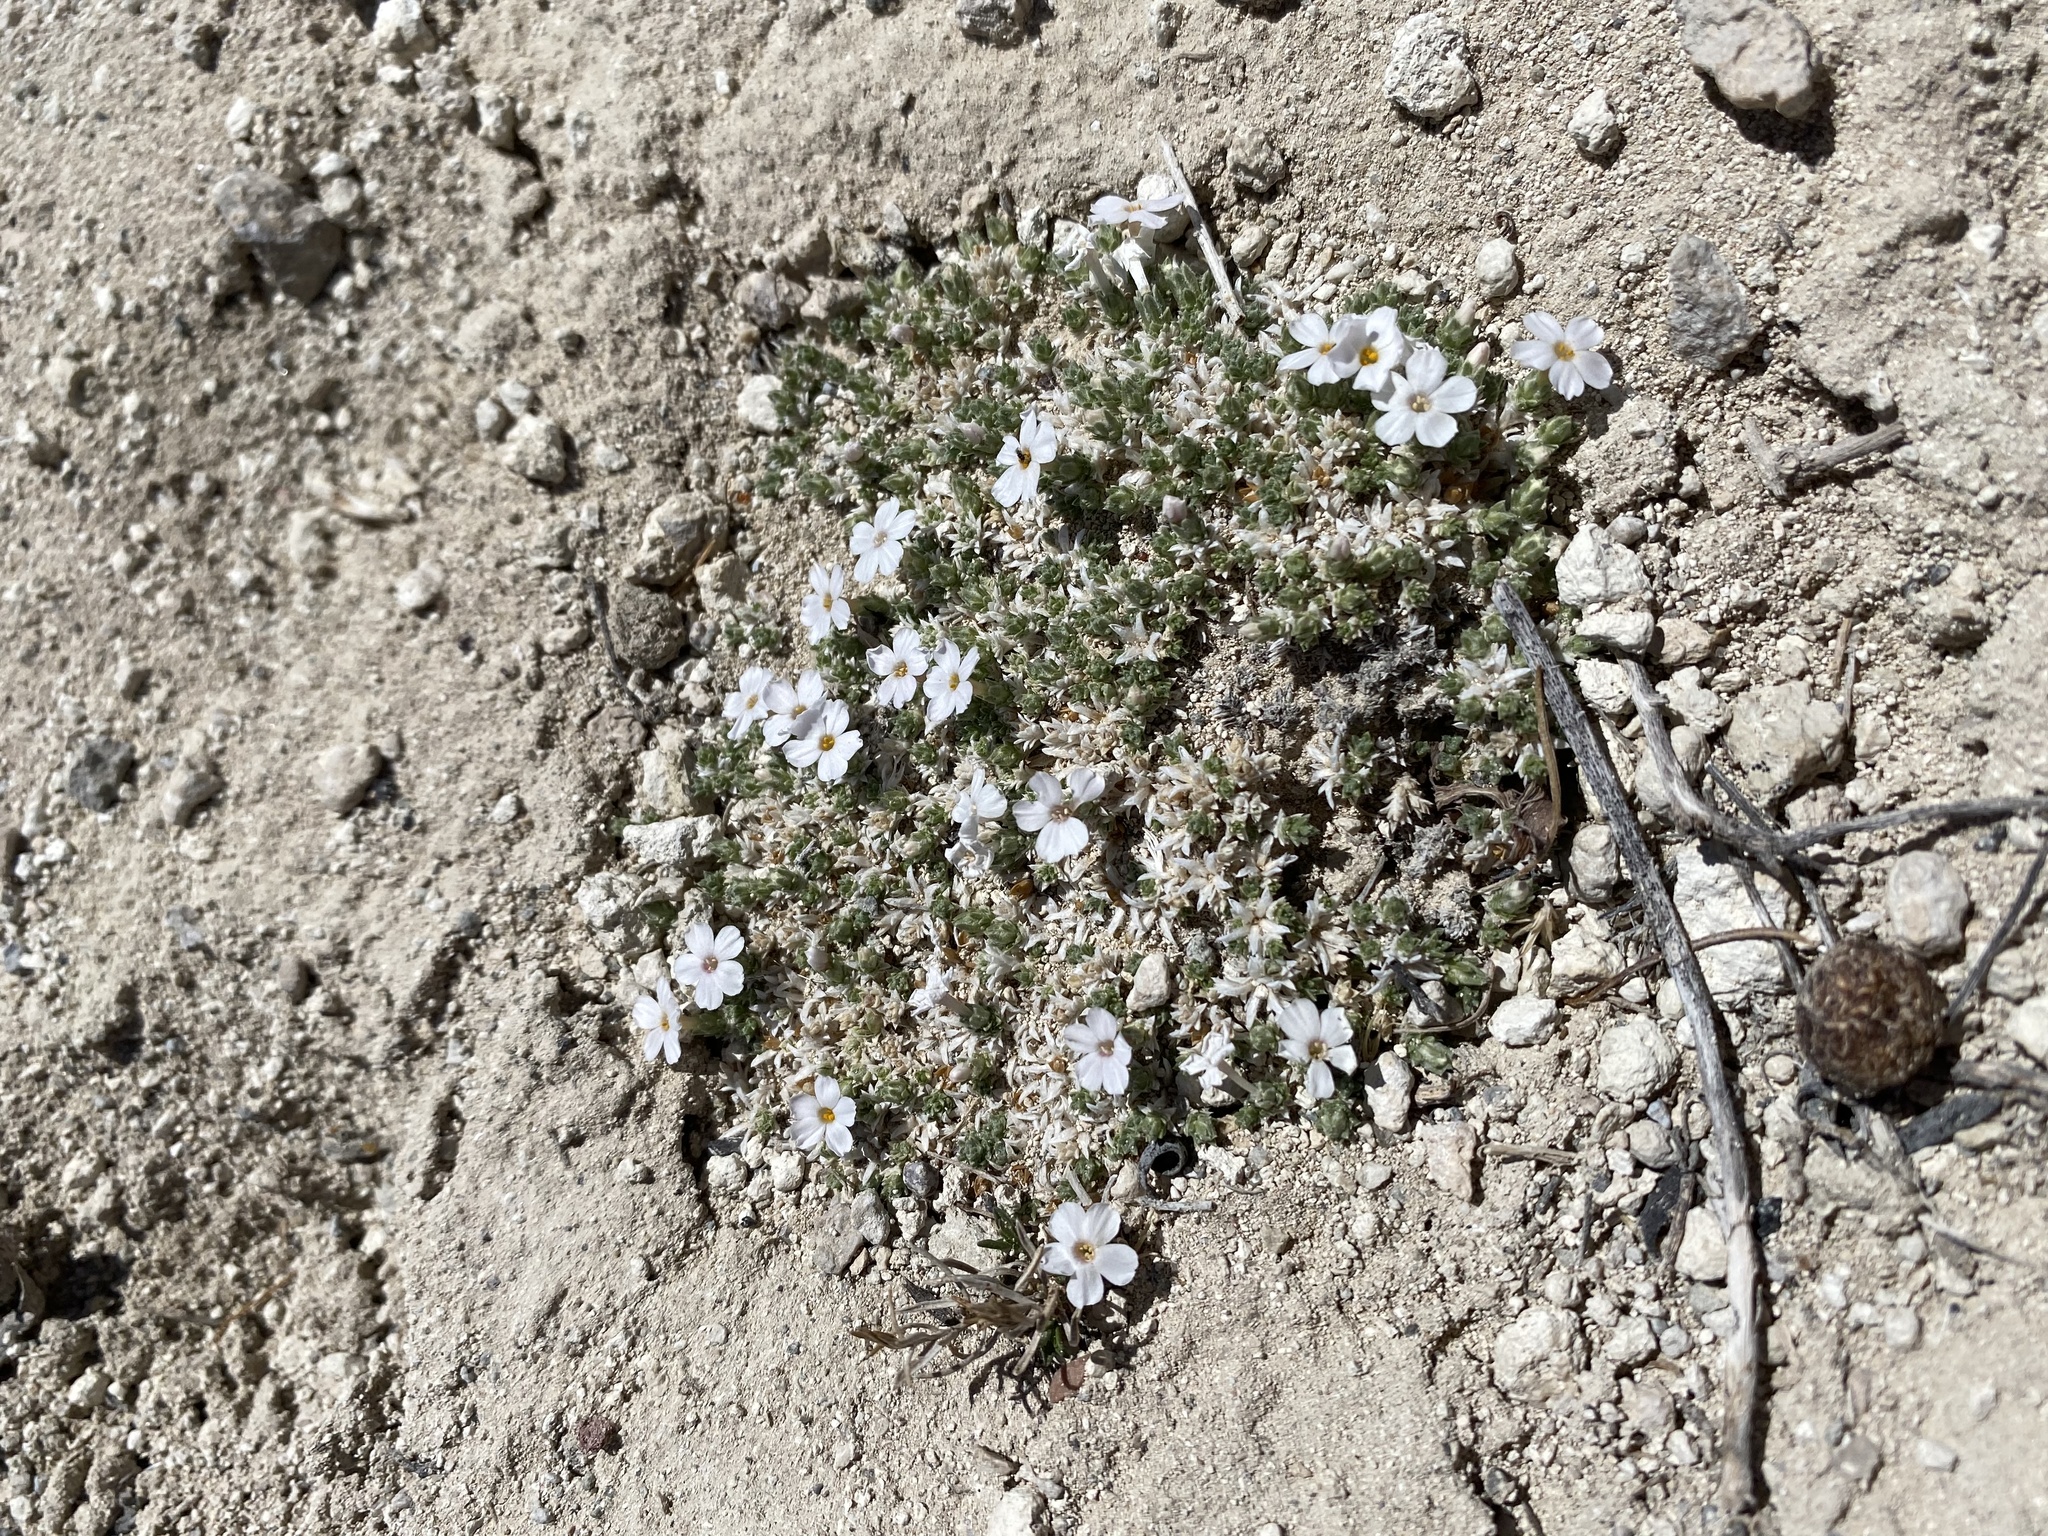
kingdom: Plantae
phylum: Tracheophyta
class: Magnoliopsida
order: Ericales
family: Polemoniaceae
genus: Phlox
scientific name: Phlox griseola
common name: Gray-leaf phlox
